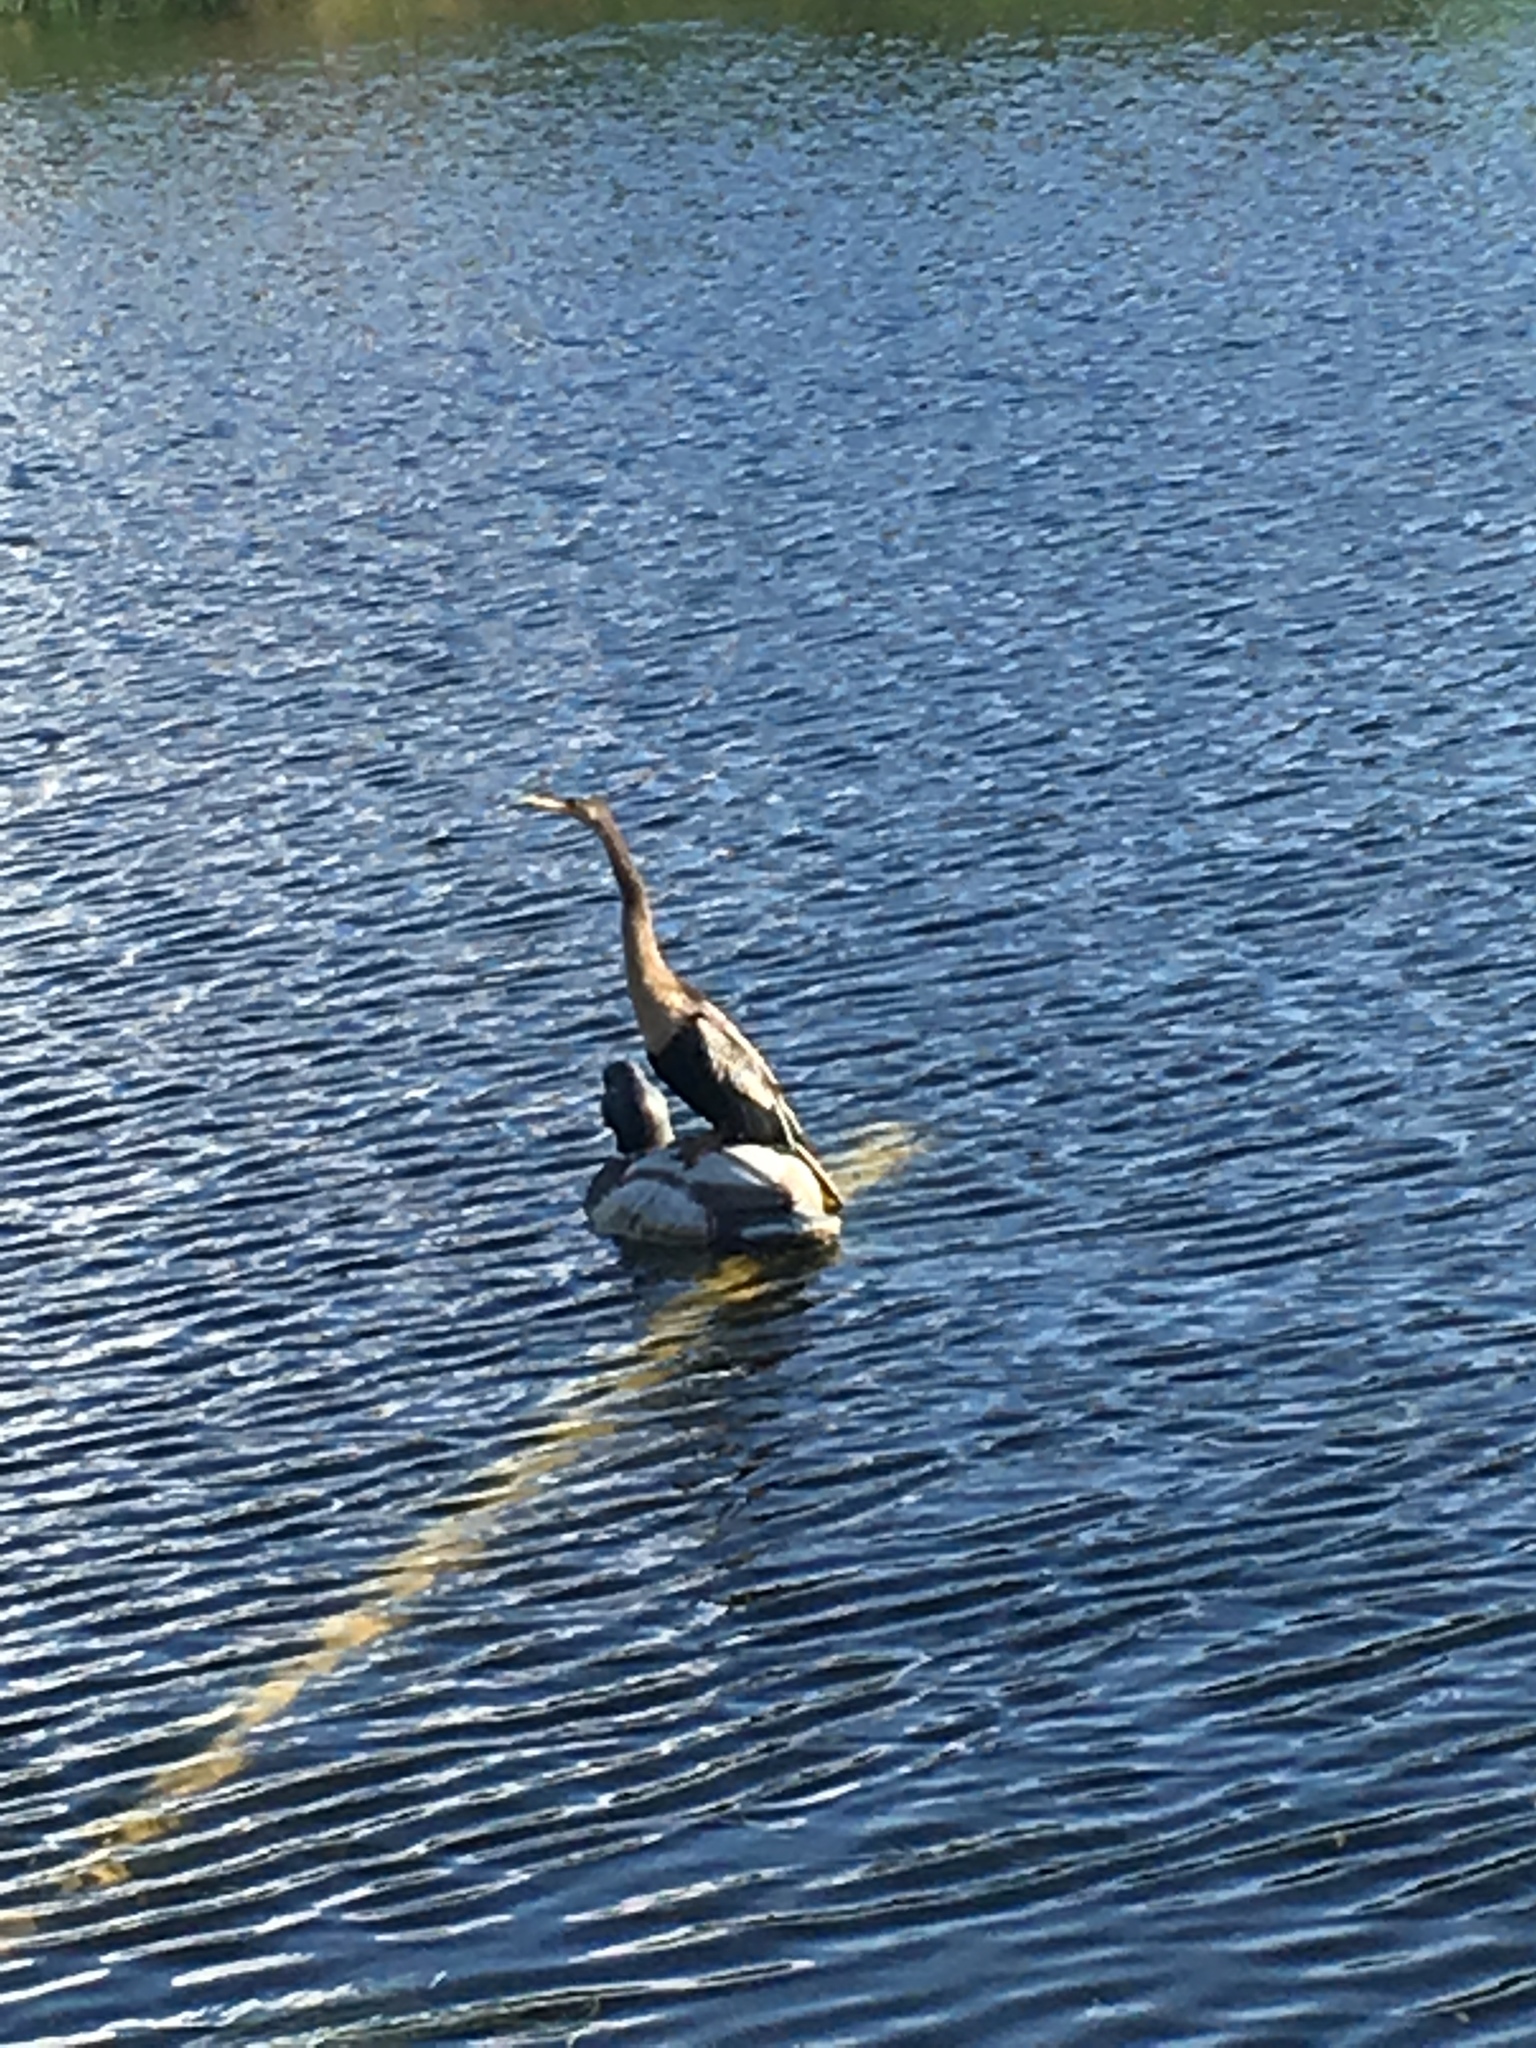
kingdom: Animalia
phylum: Chordata
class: Aves
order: Suliformes
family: Anhingidae
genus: Anhinga
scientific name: Anhinga anhinga
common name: Anhinga
